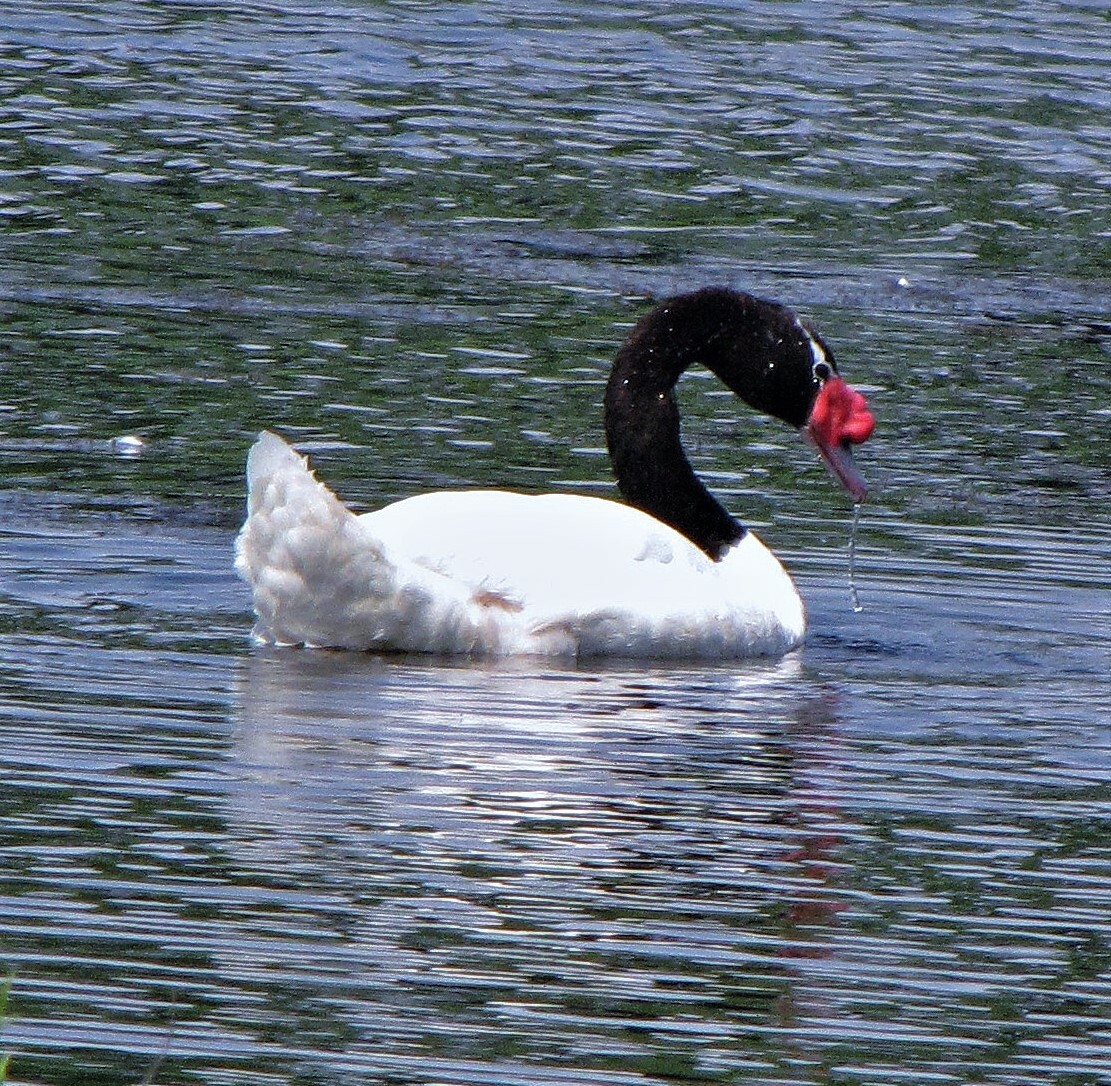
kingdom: Animalia
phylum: Chordata
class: Aves
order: Anseriformes
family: Anatidae
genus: Cygnus
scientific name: Cygnus melancoryphus
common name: Black-necked swan
